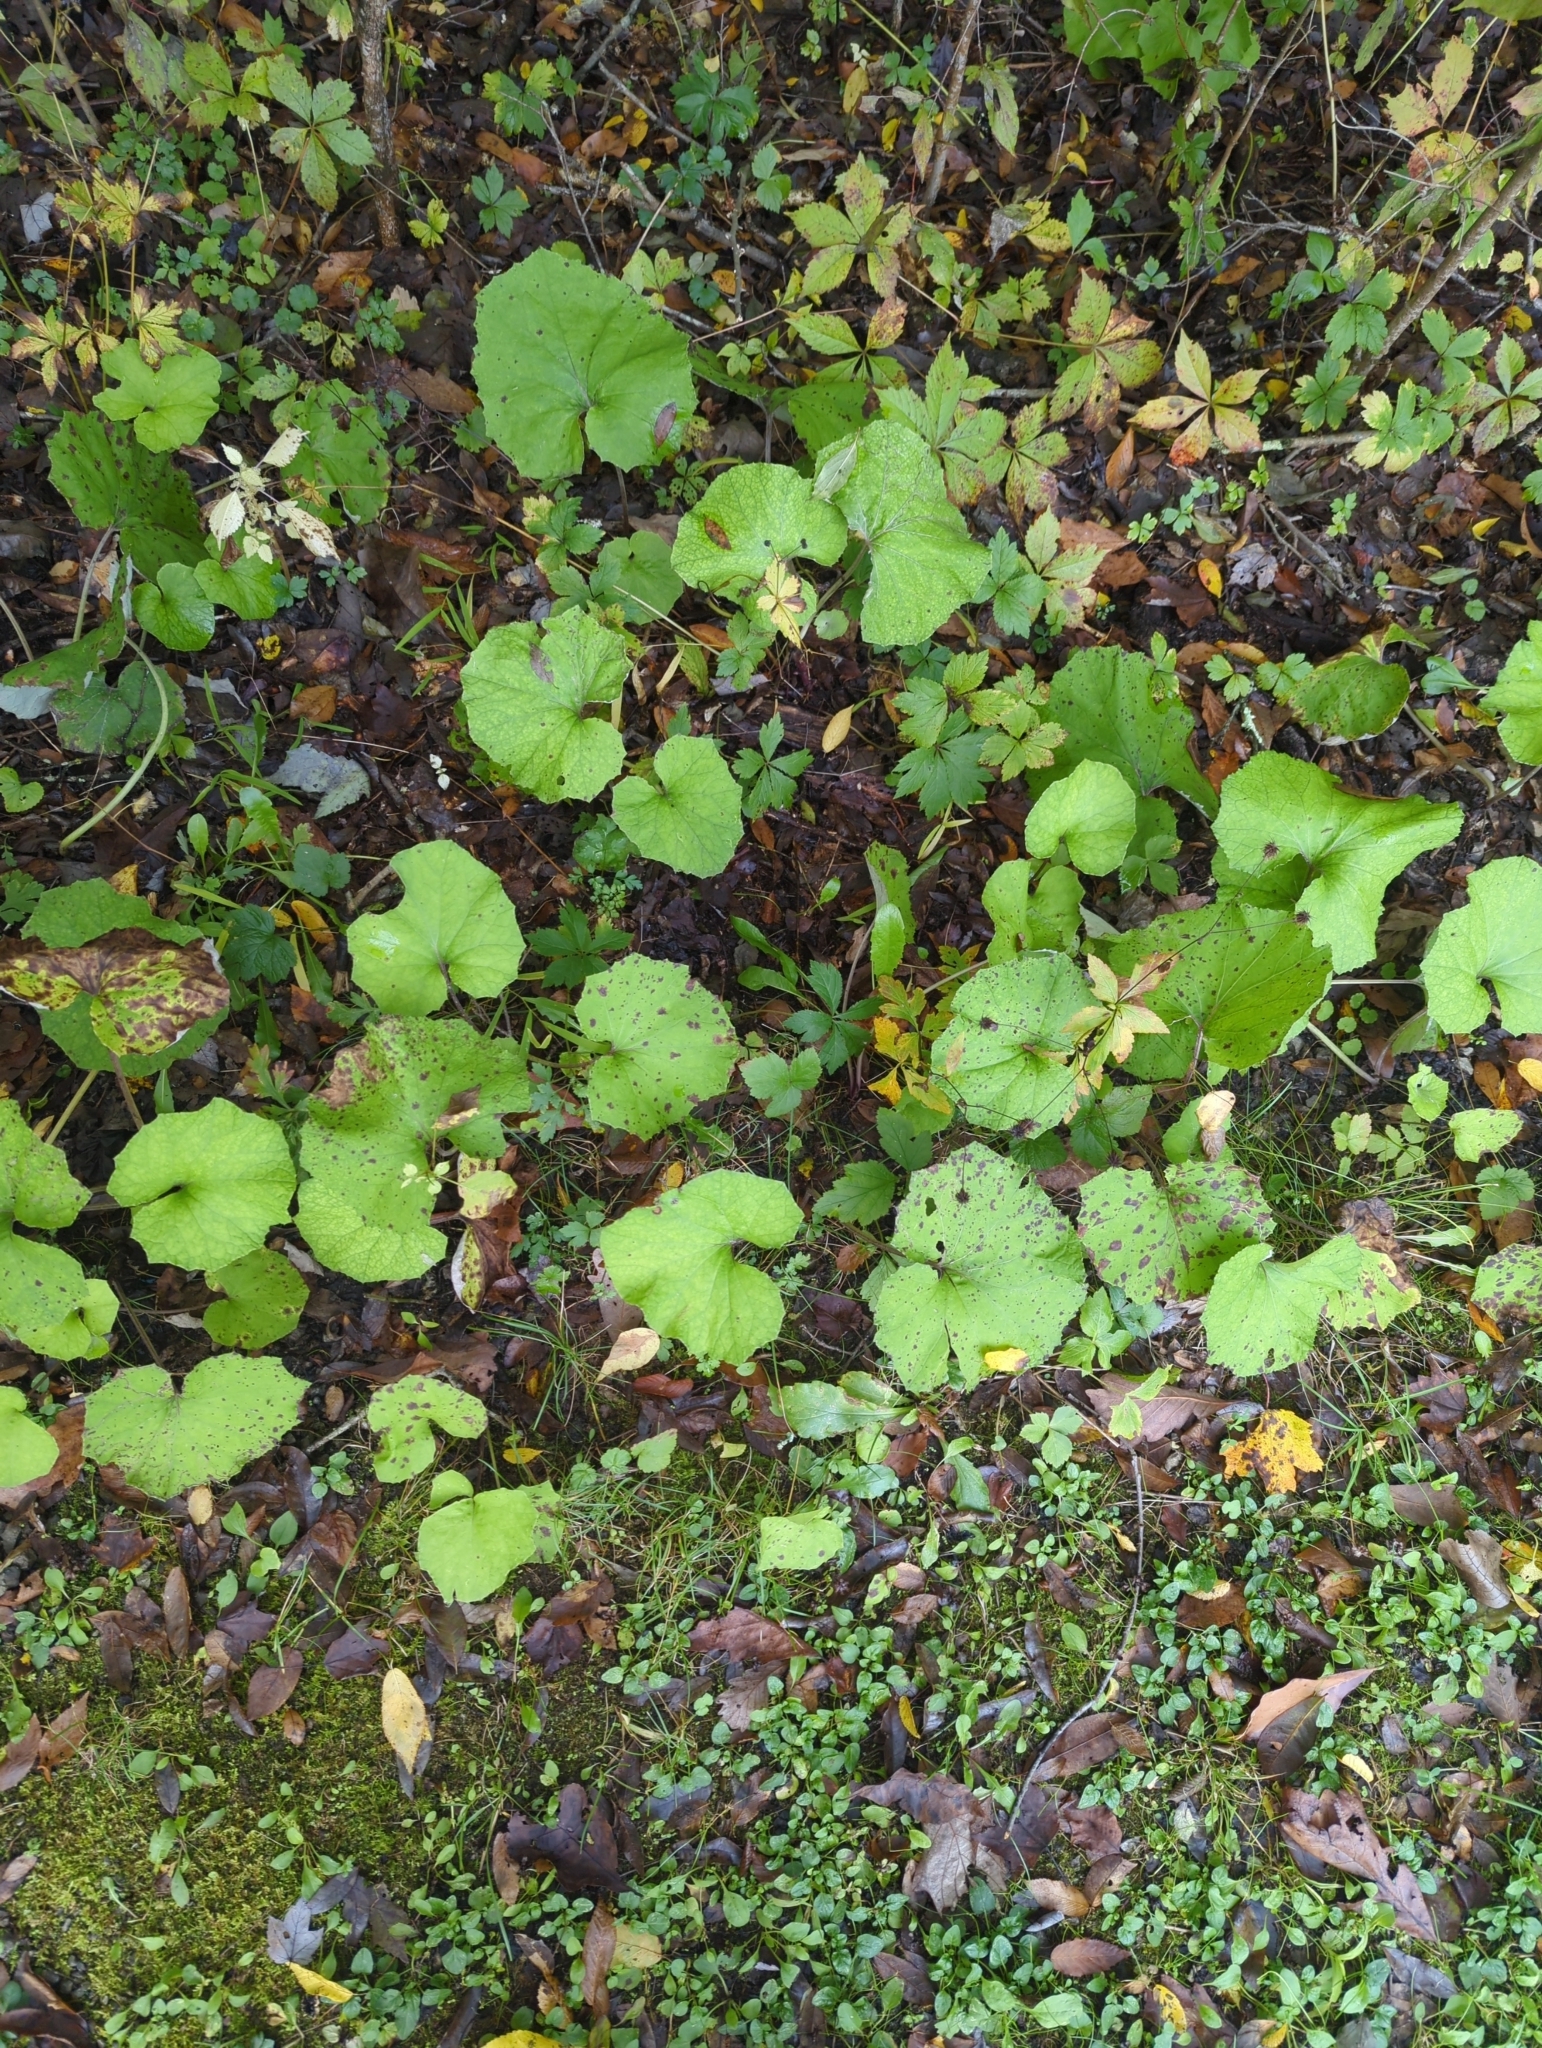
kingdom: Plantae
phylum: Tracheophyta
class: Magnoliopsida
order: Asterales
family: Asteraceae
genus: Tussilago
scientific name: Tussilago farfara
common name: Coltsfoot
